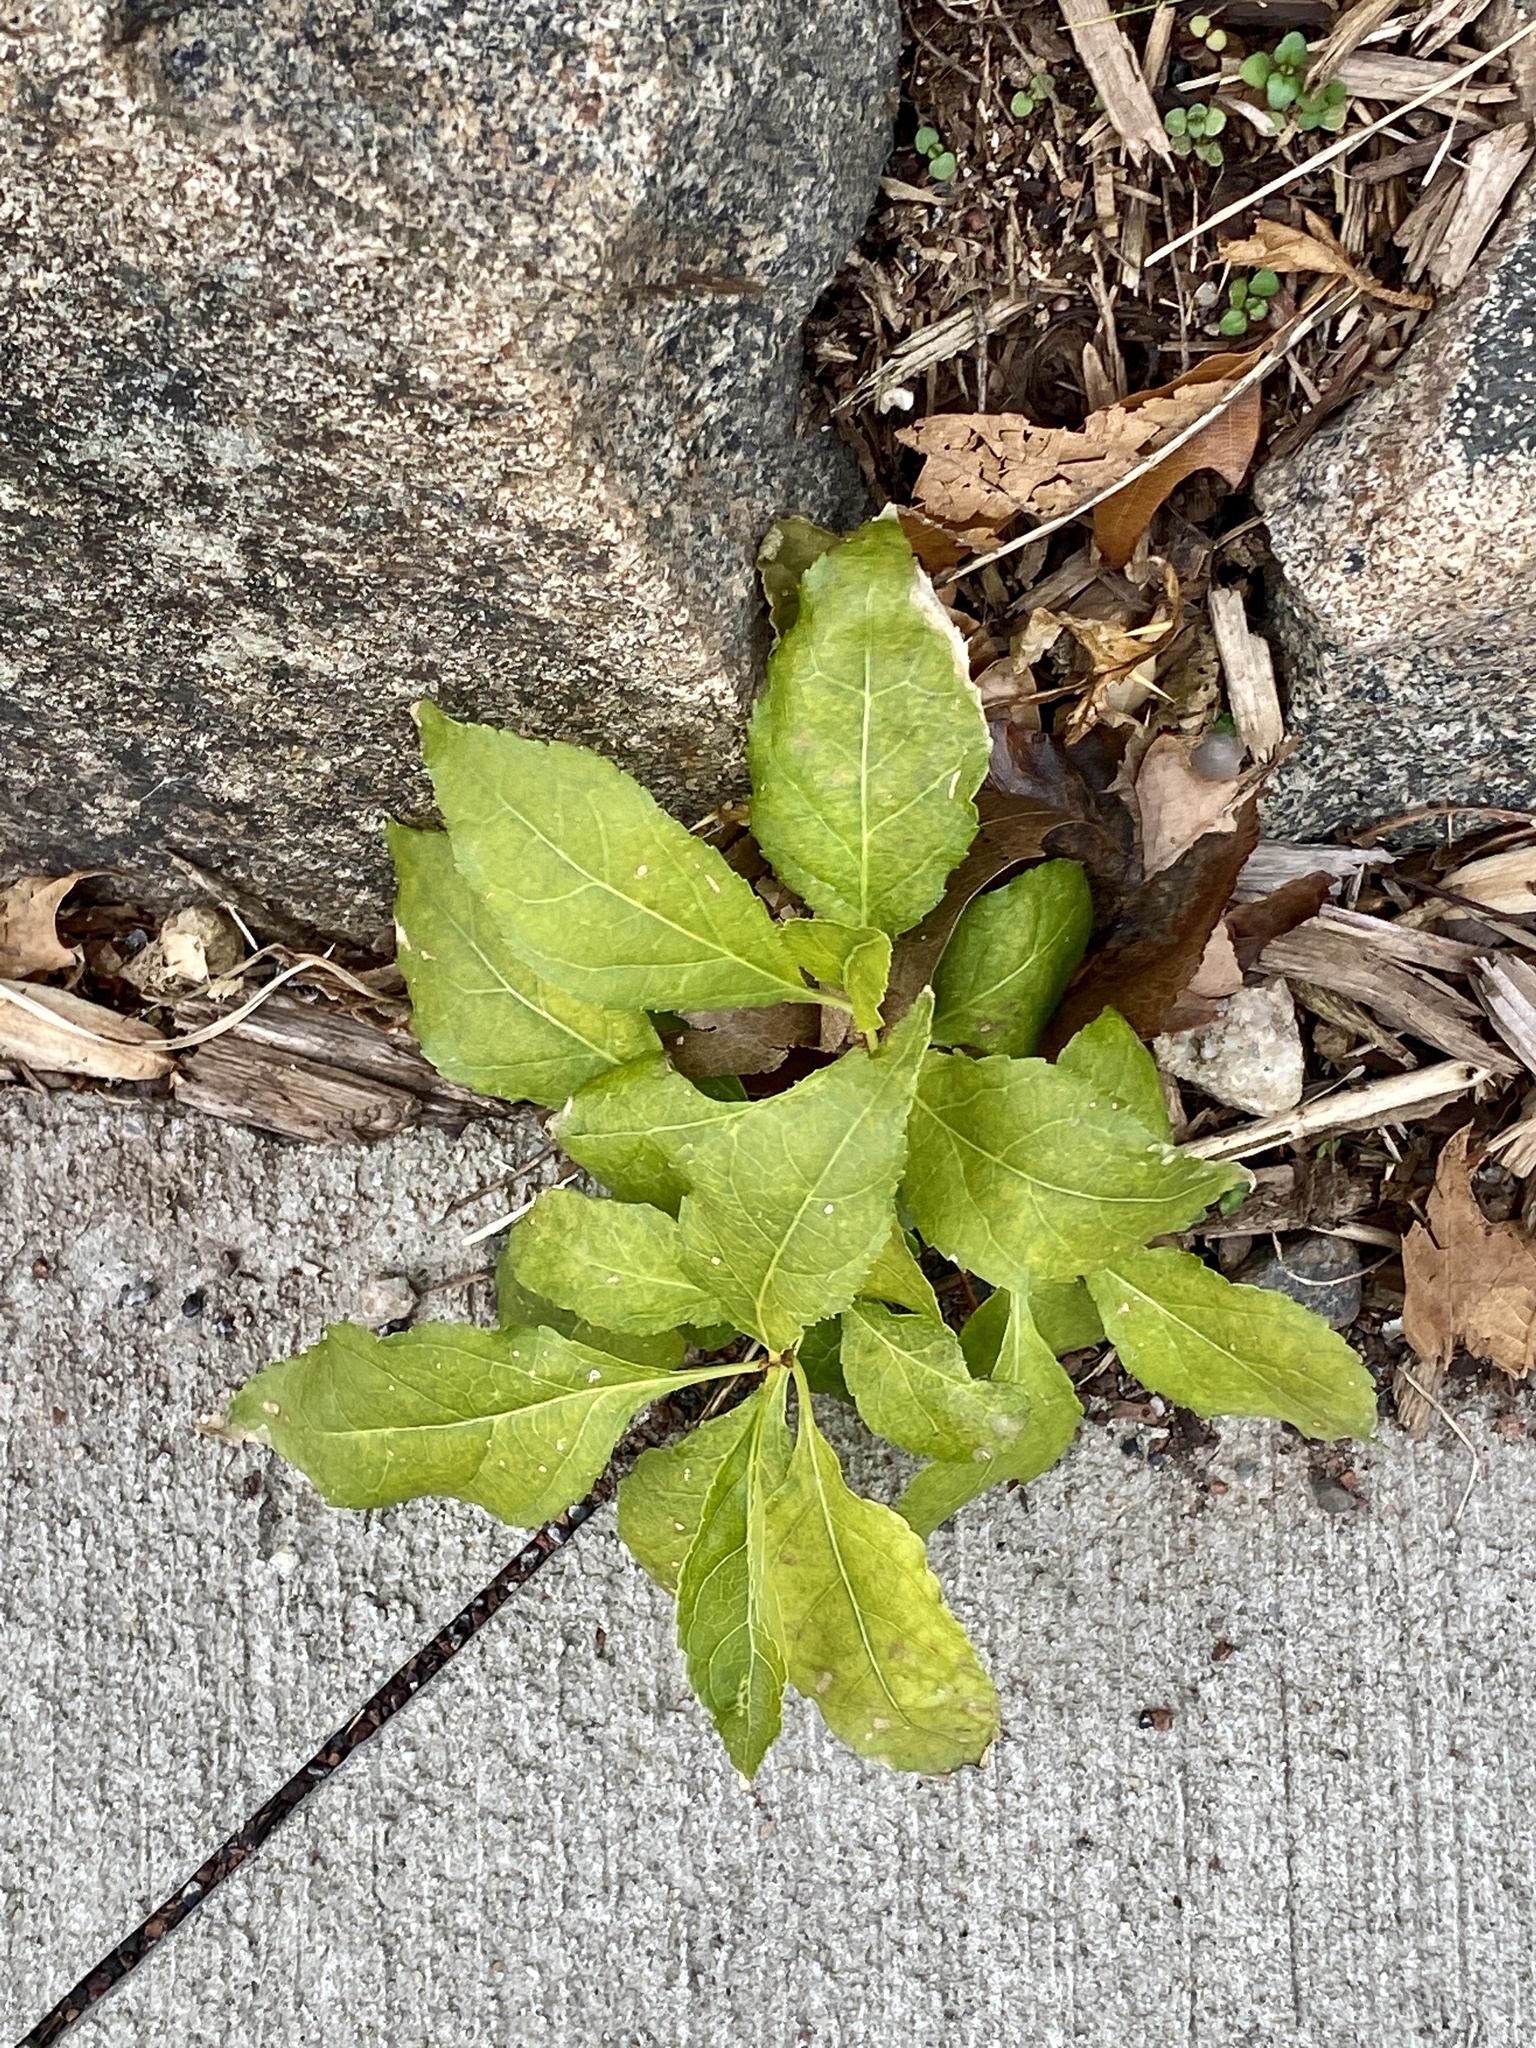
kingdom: Plantae
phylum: Tracheophyta
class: Magnoliopsida
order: Celastrales
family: Celastraceae
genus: Celastrus
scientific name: Celastrus orbiculatus
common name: Oriental bittersweet
